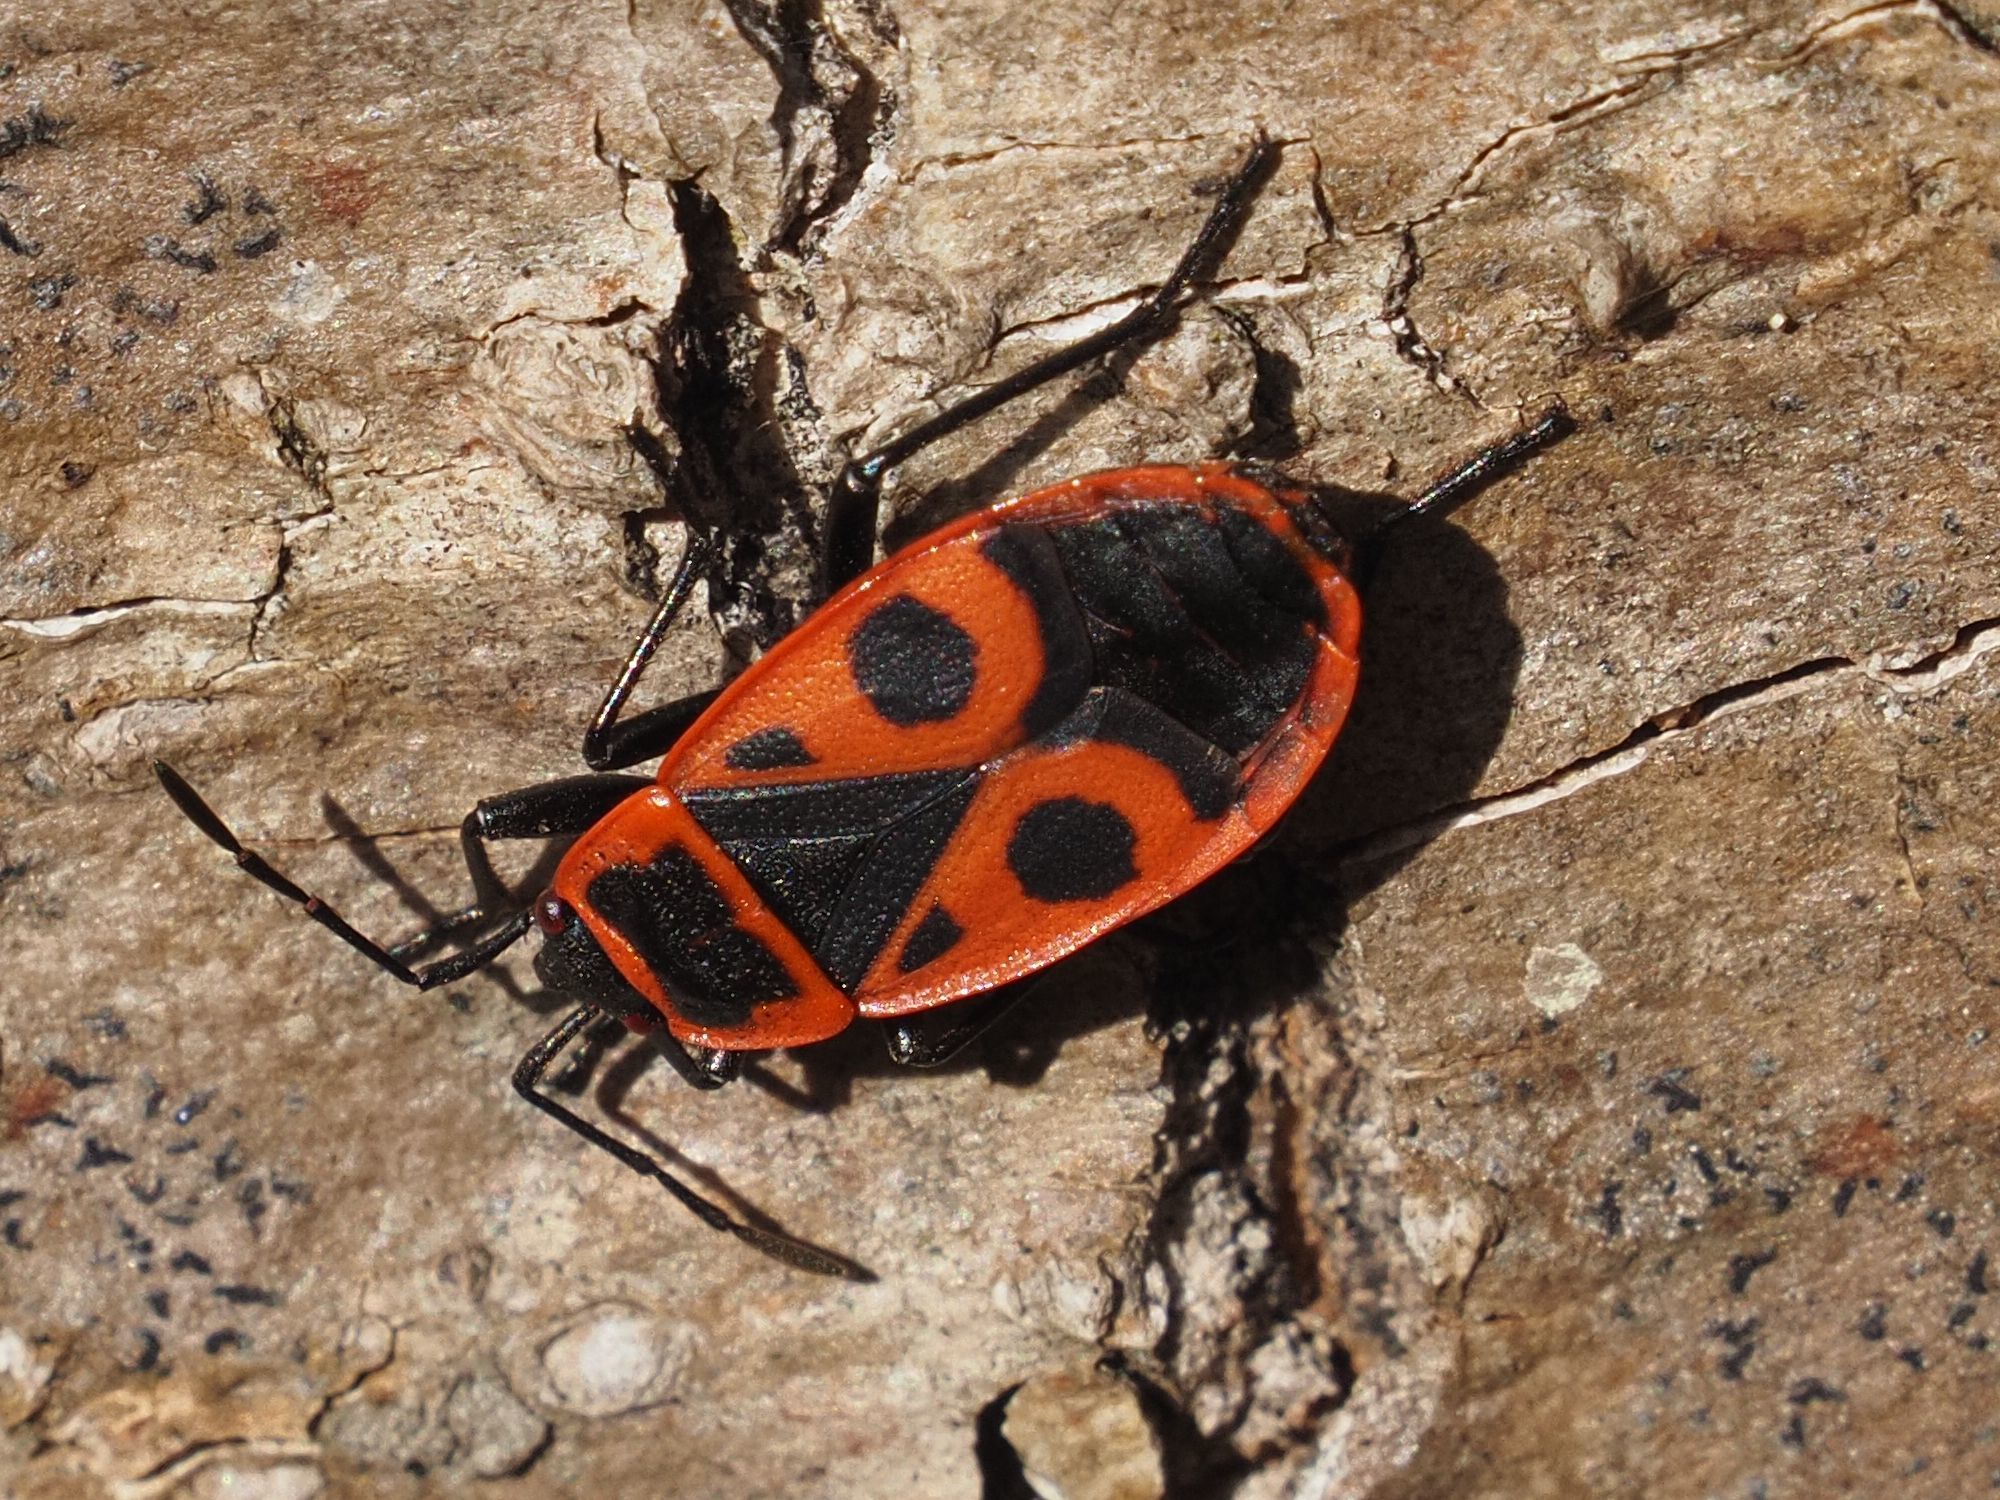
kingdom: Animalia
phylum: Arthropoda
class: Insecta
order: Hemiptera
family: Pyrrhocoridae
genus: Pyrrhocoris
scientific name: Pyrrhocoris apterus
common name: Firebug
